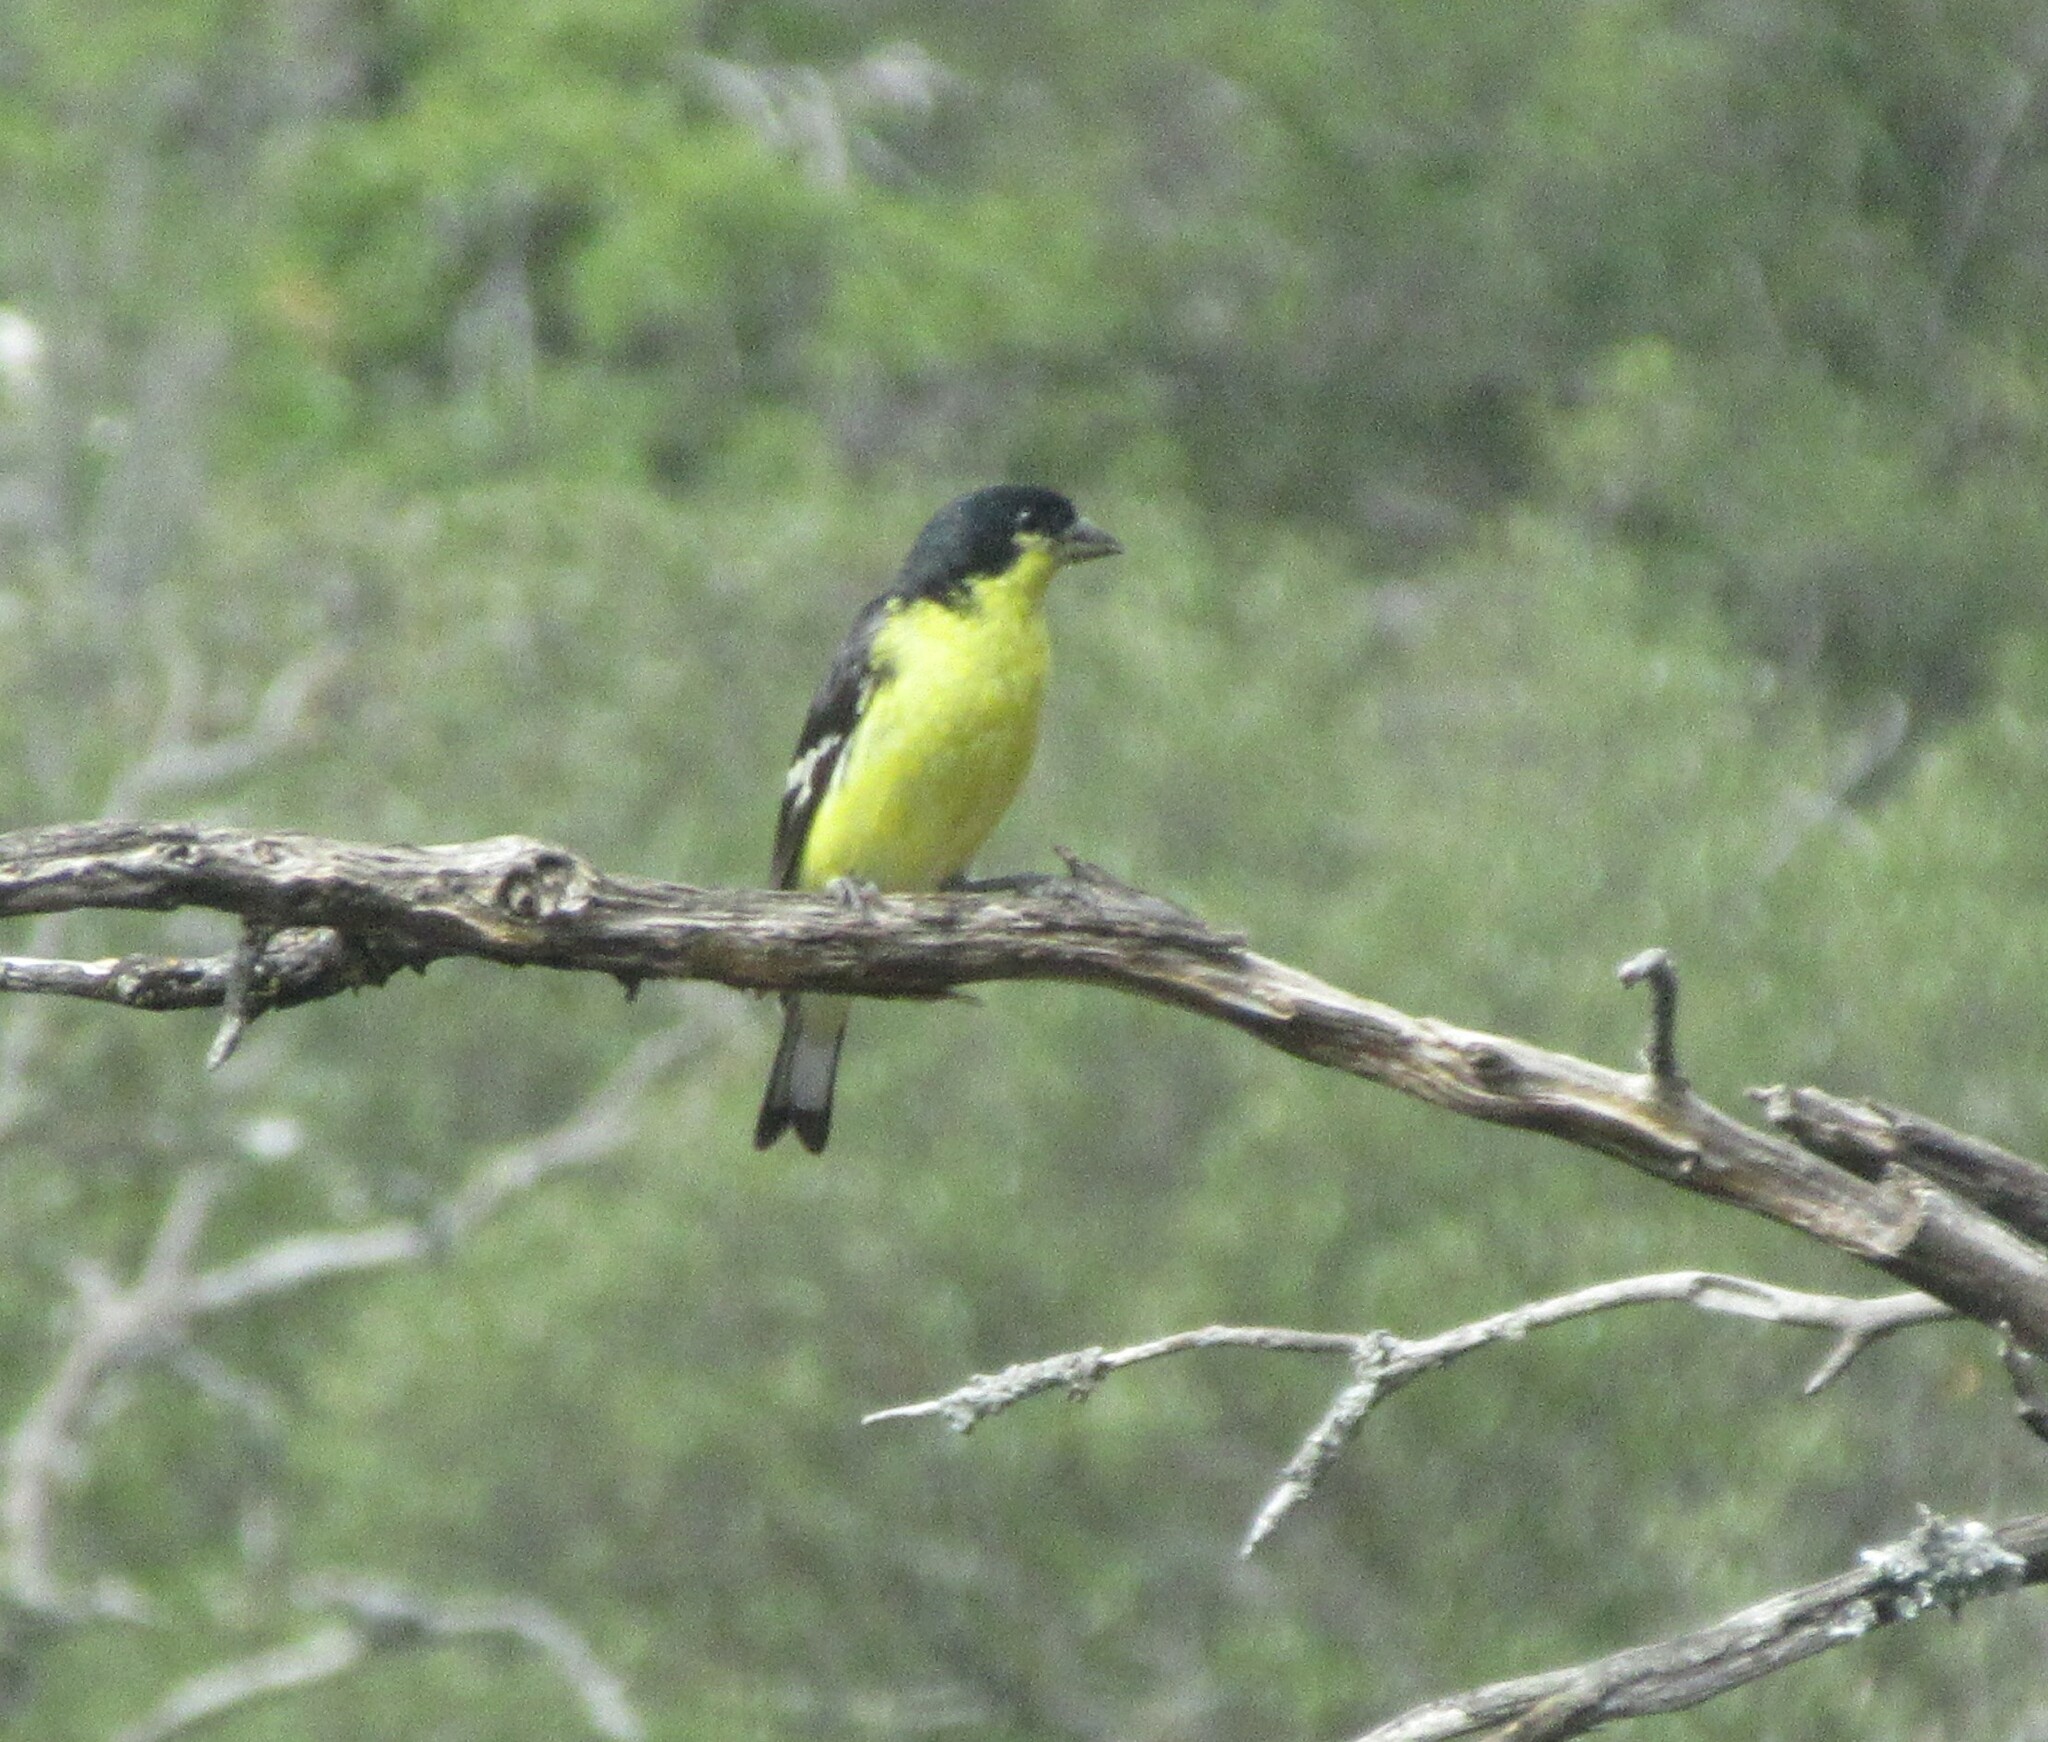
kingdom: Animalia
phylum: Chordata
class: Aves
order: Passeriformes
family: Fringillidae
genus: Spinus
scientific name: Spinus psaltria
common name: Lesser goldfinch
